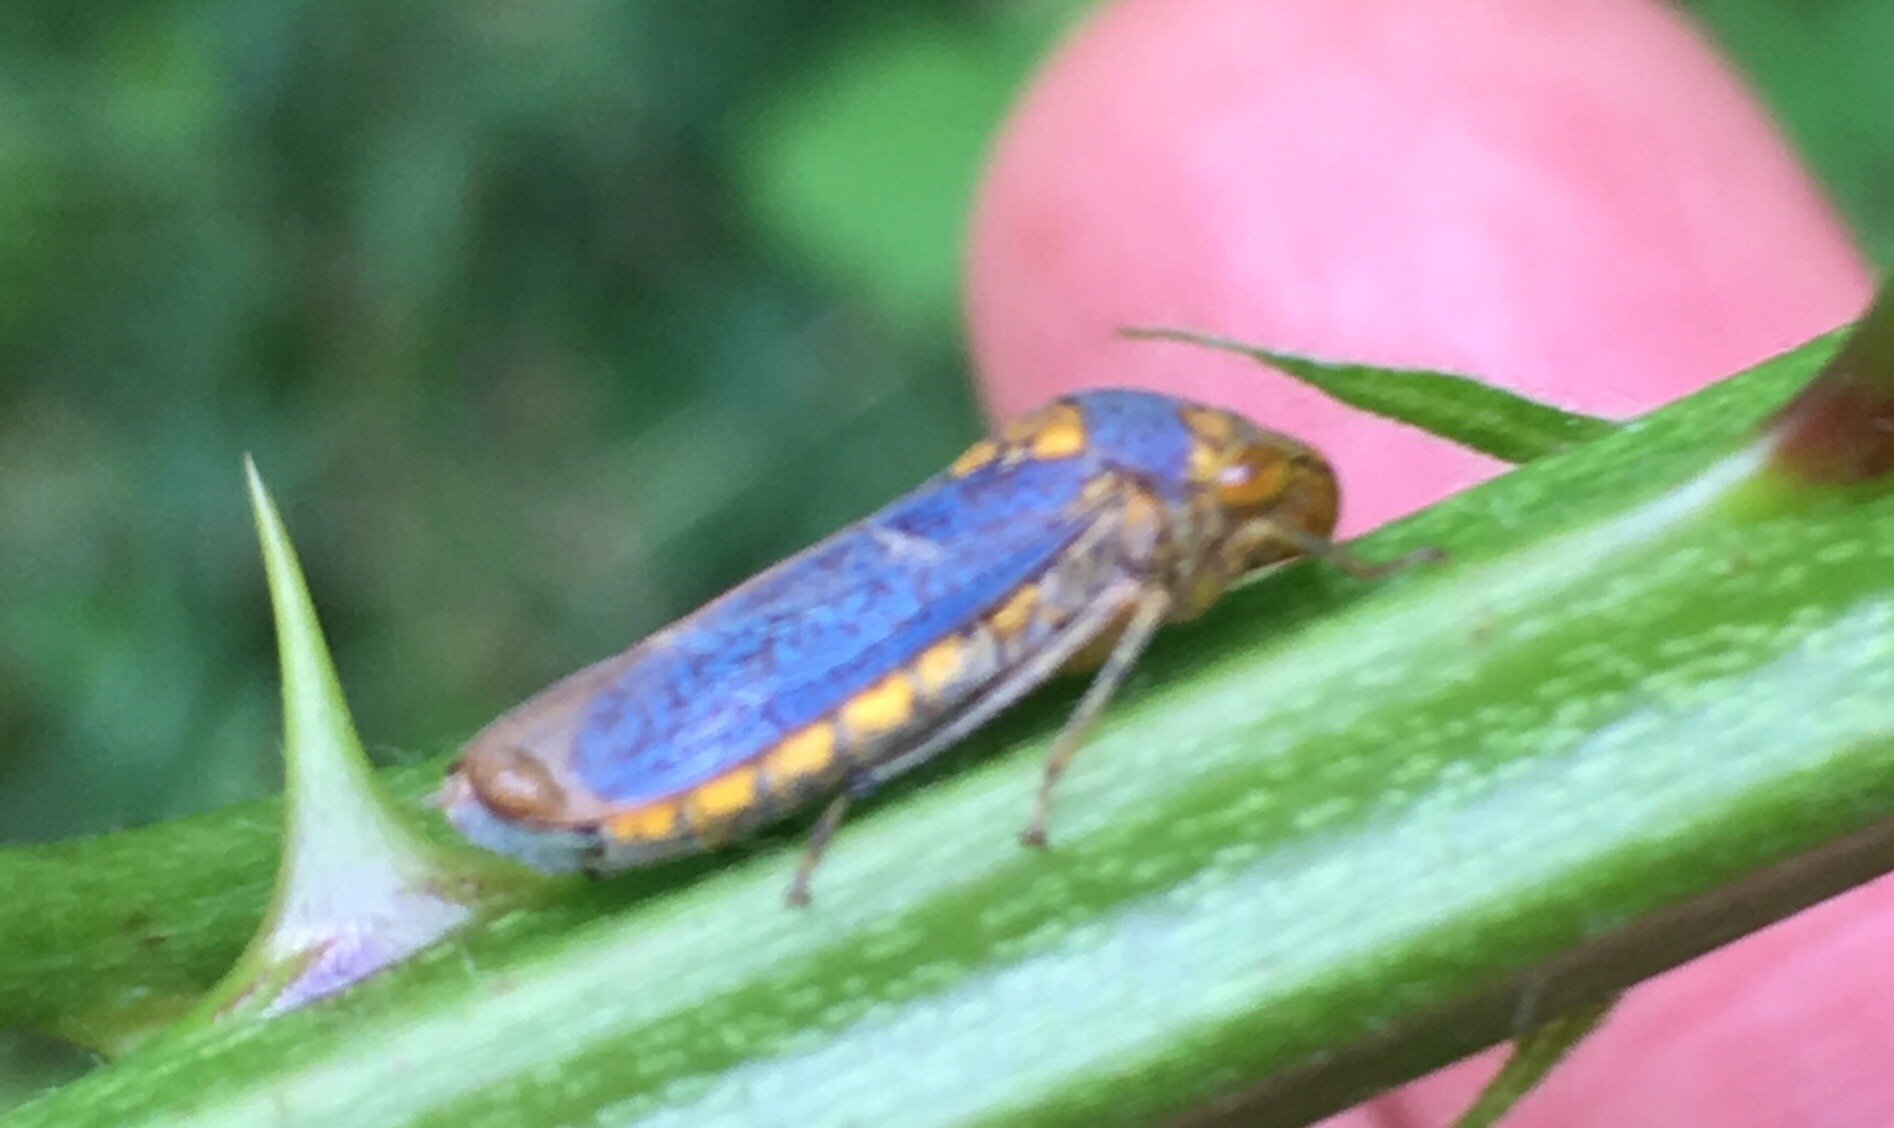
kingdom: Animalia
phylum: Arthropoda
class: Insecta
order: Hemiptera
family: Cicadellidae
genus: Oncometopia
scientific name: Oncometopia orbona
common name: Broad-headed sharpshooter
